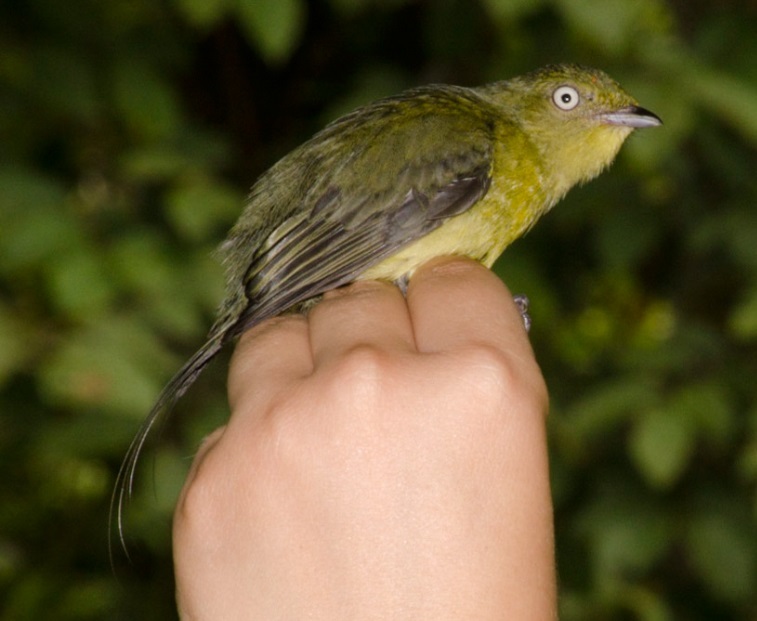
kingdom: Animalia
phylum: Chordata
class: Aves
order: Passeriformes
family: Pipridae
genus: Pipra
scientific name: Pipra filicauda
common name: Wire-tailed manakin
